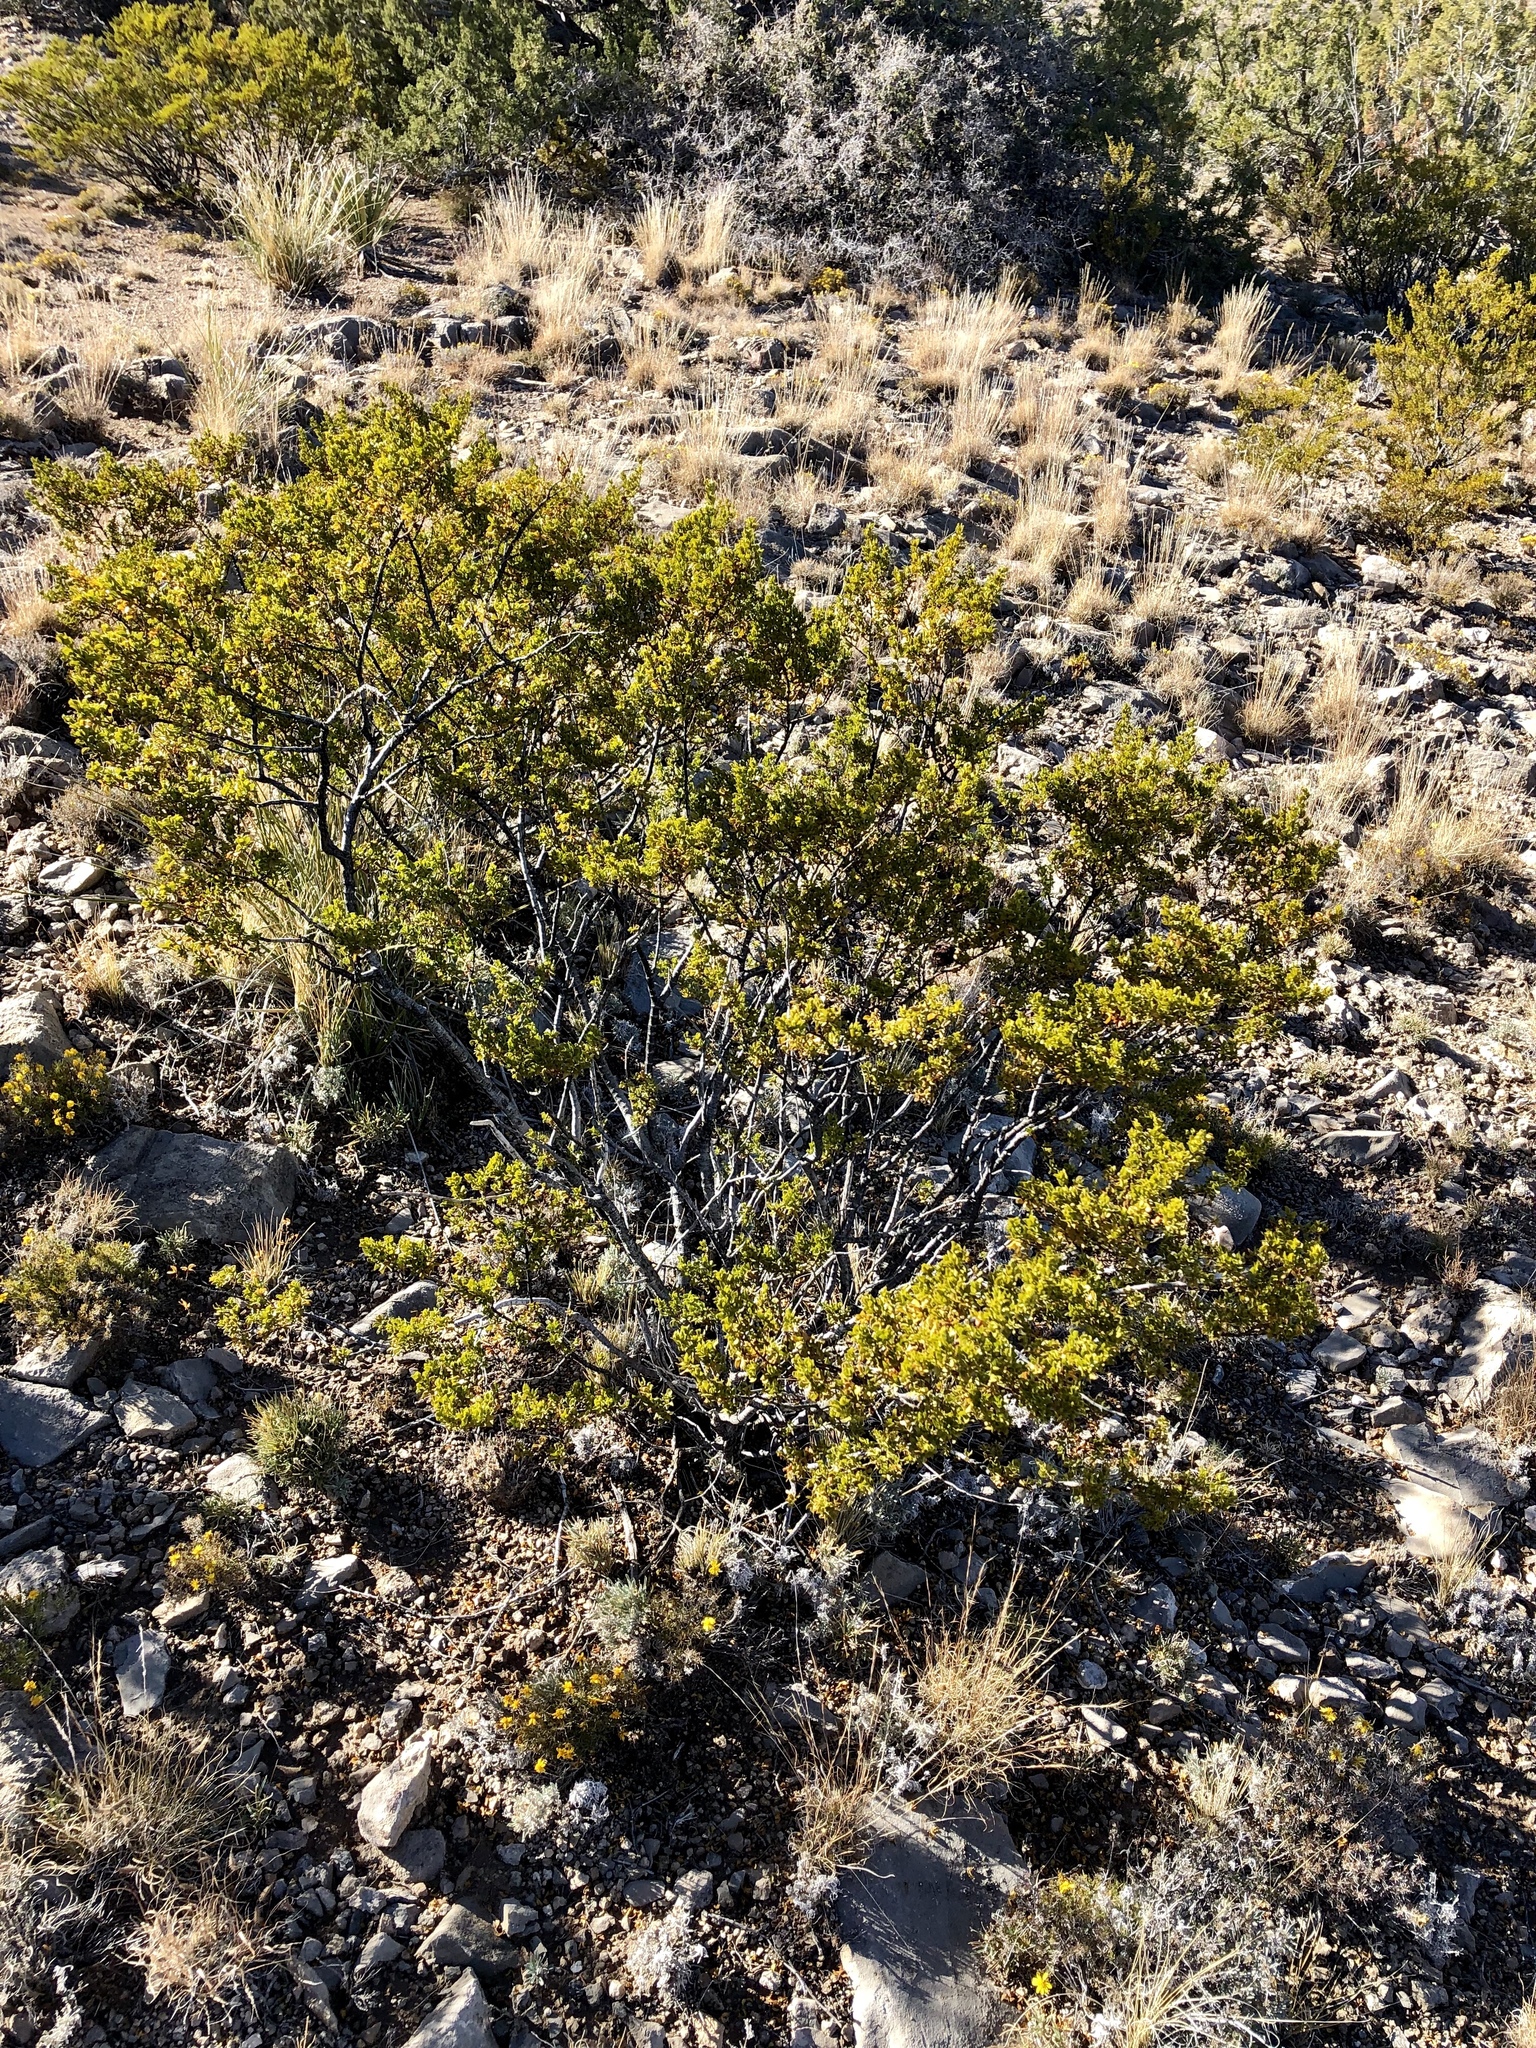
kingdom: Plantae
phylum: Tracheophyta
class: Magnoliopsida
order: Zygophyllales
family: Zygophyllaceae
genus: Larrea
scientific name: Larrea tridentata
